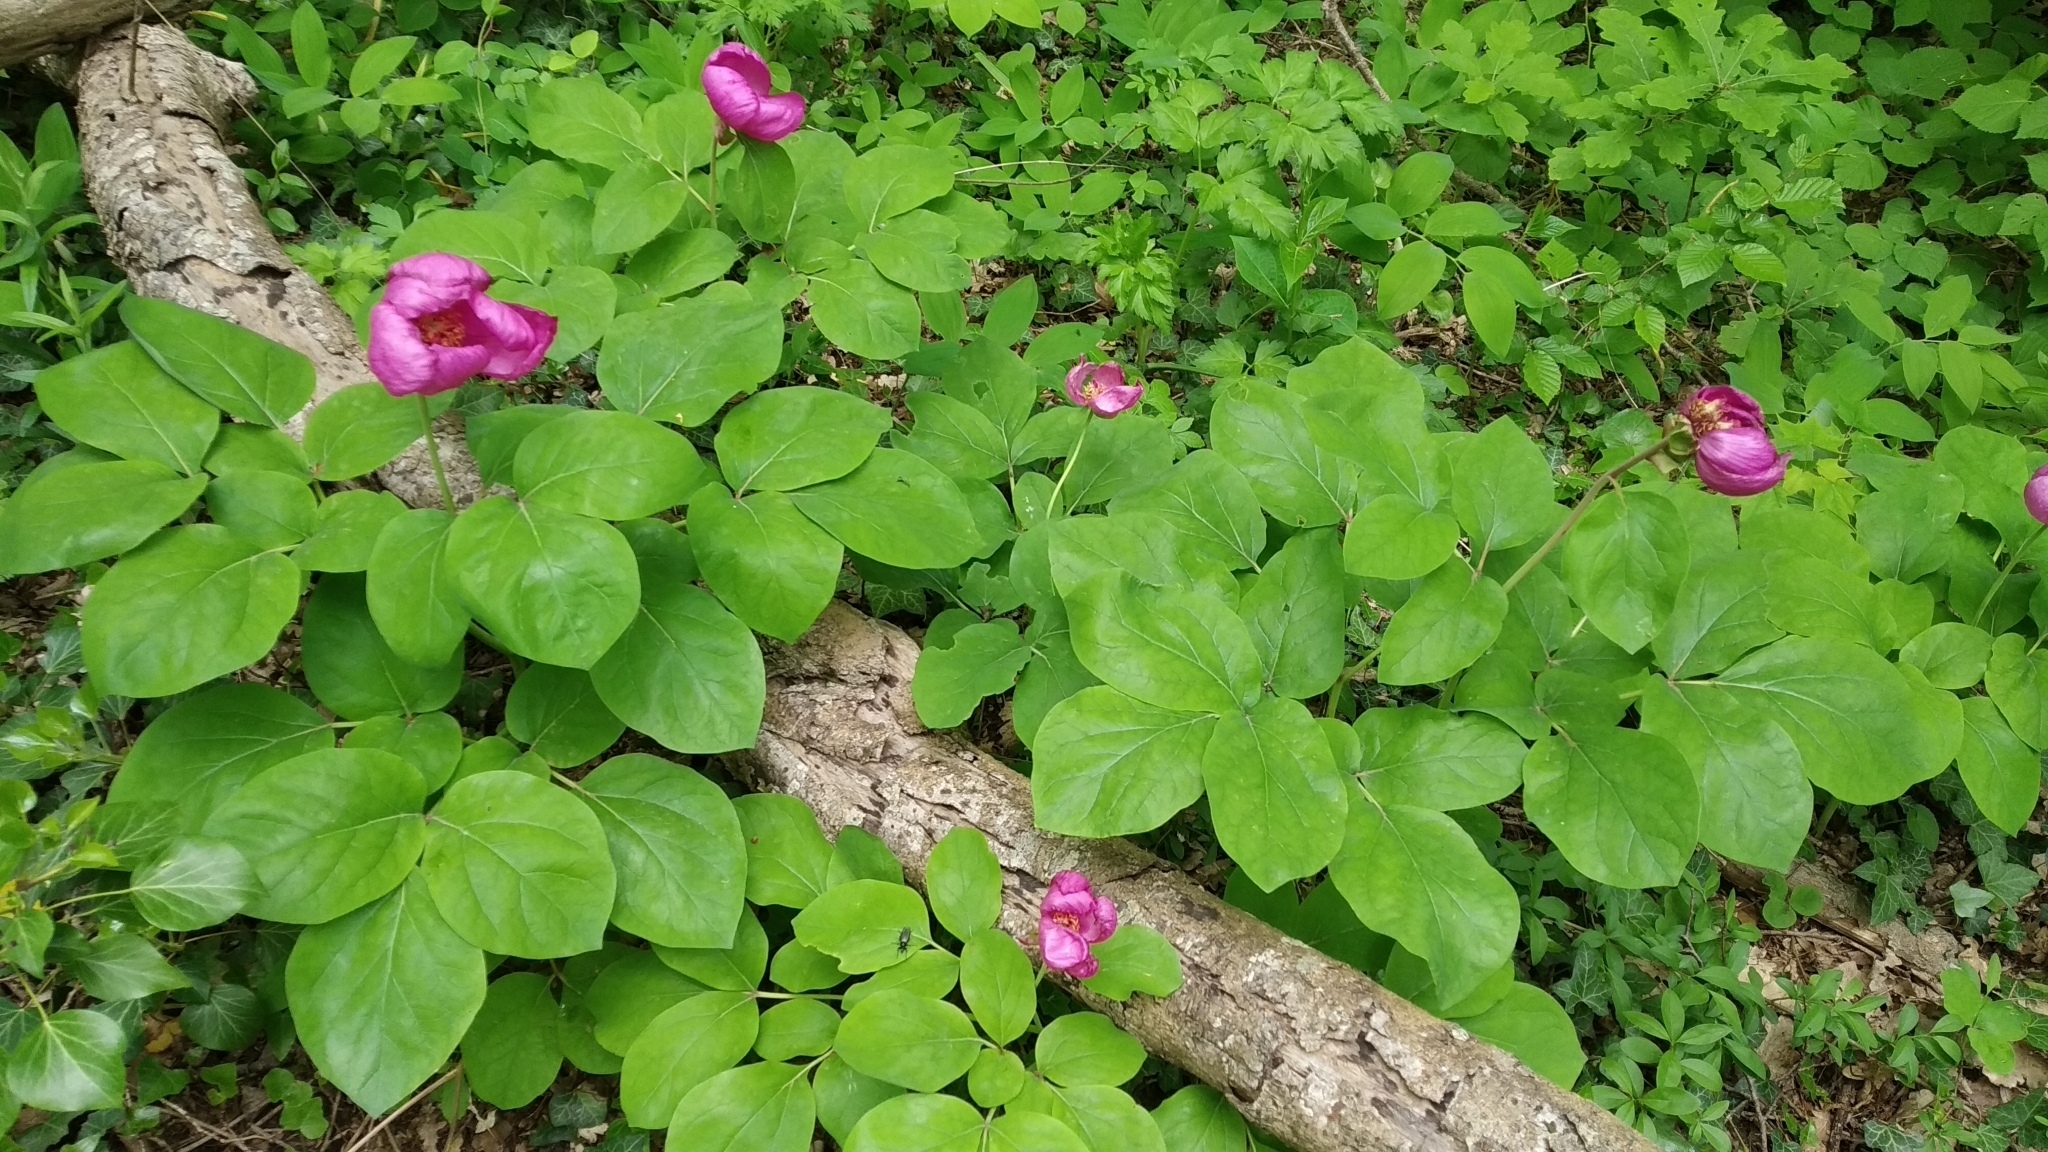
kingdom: Plantae
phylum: Tracheophyta
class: Magnoliopsida
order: Saxifragales
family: Paeoniaceae
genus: Paeonia
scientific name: Paeonia caucasica
